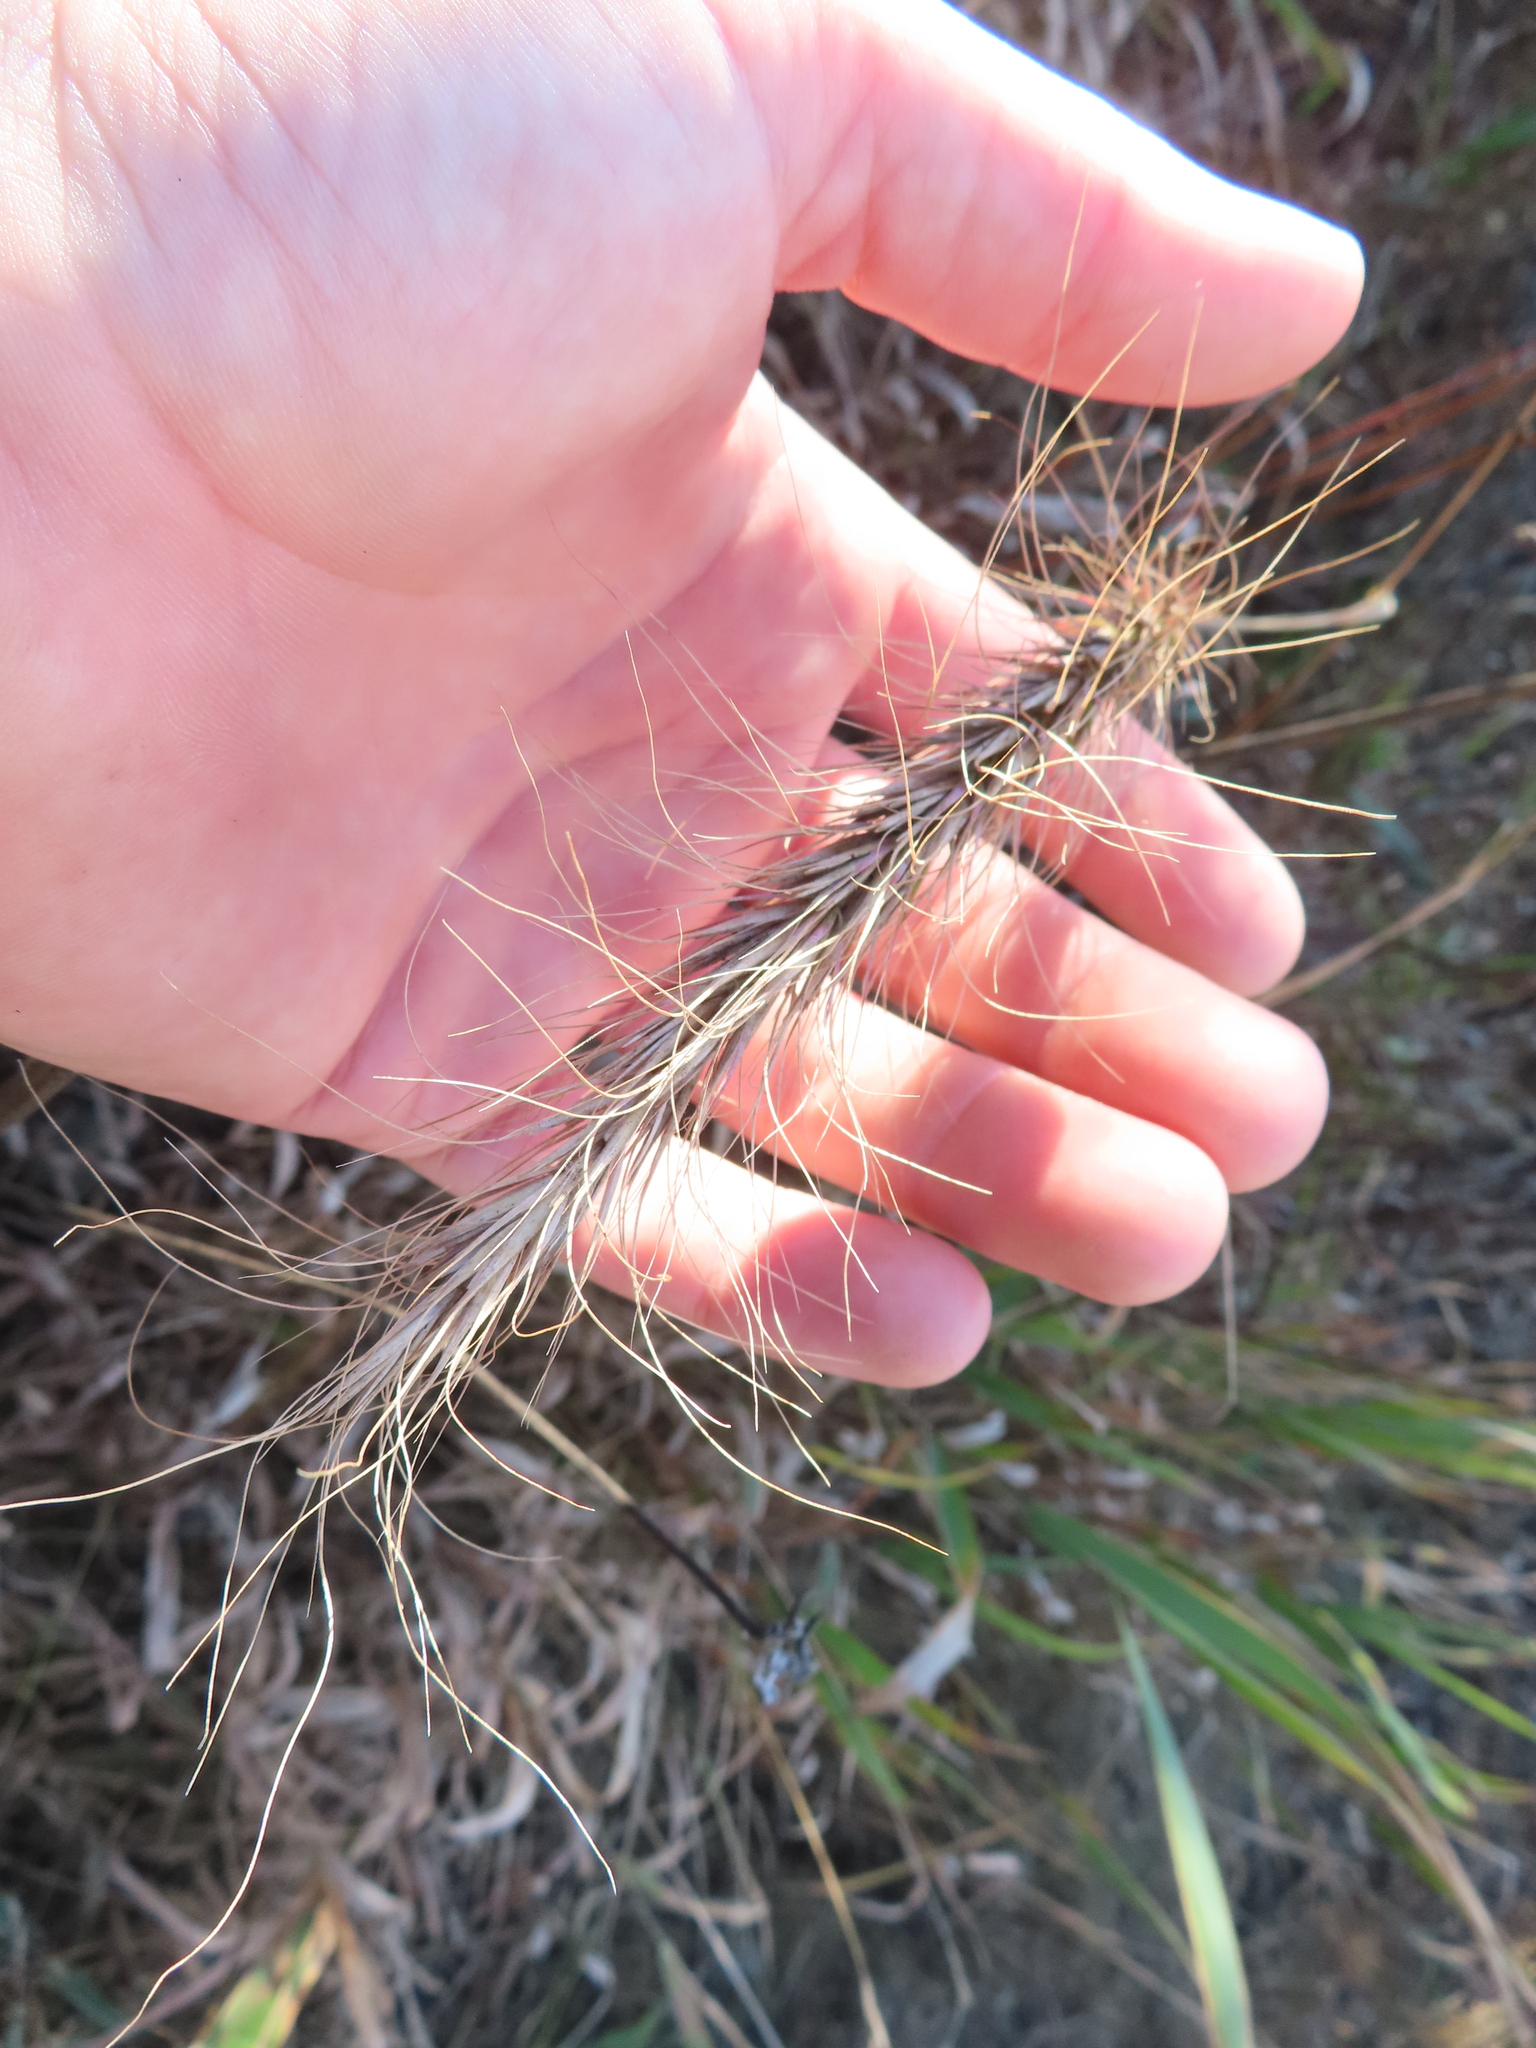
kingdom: Plantae
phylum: Tracheophyta
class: Liliopsida
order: Poales
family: Poaceae
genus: Elymus
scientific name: Elymus canadensis
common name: Canada wild rye
